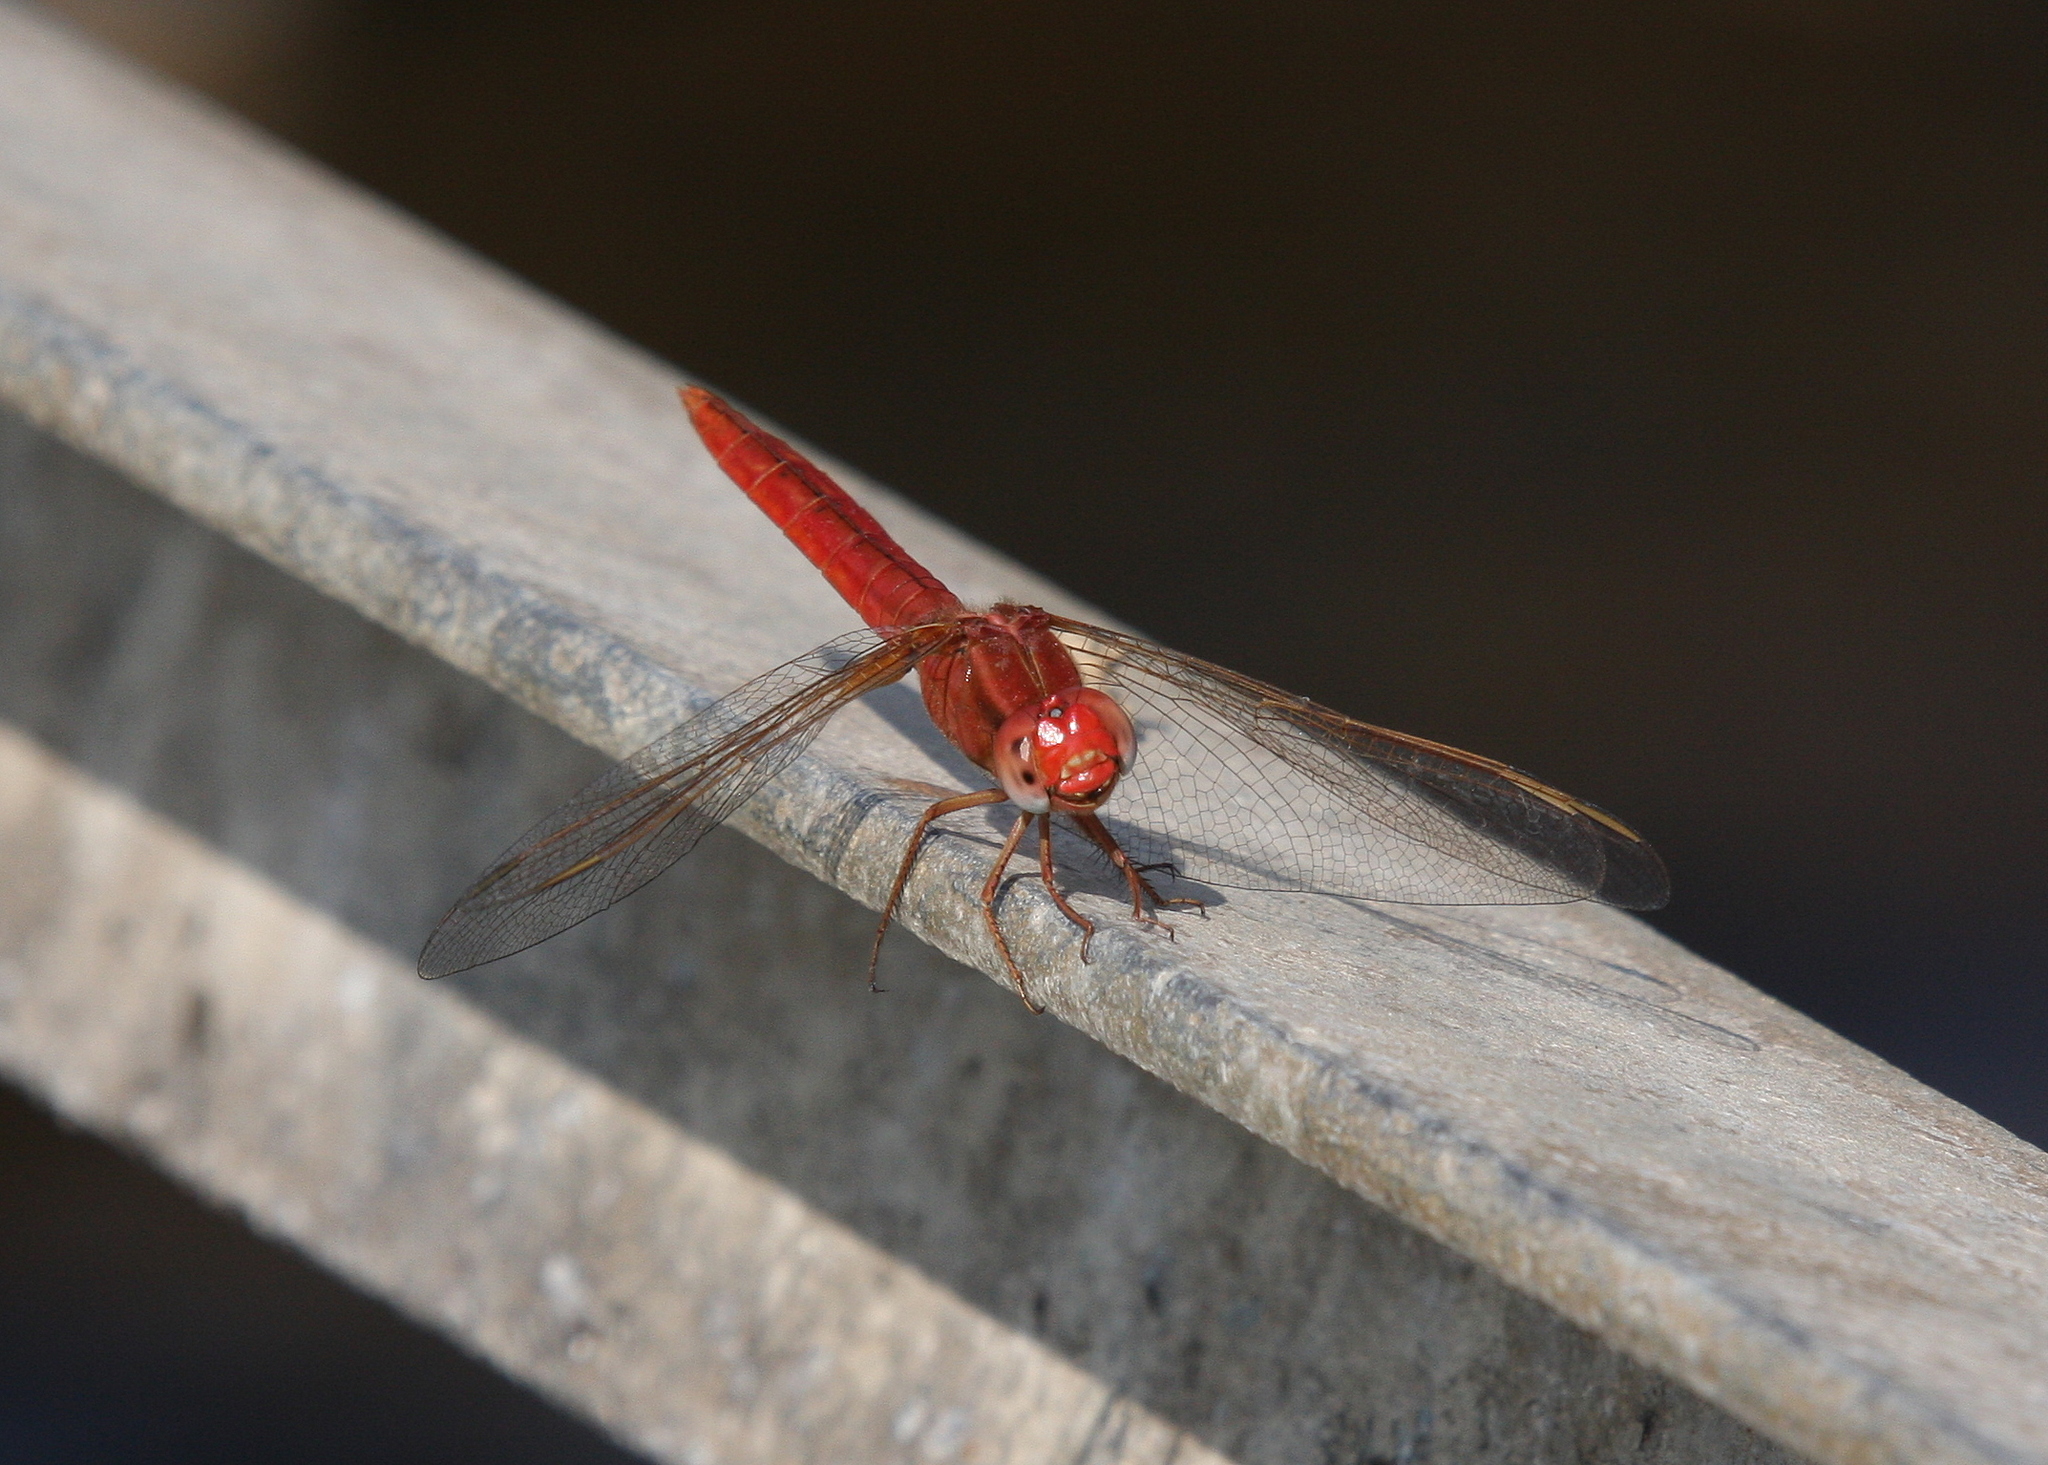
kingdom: Animalia
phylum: Arthropoda
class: Insecta
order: Odonata
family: Libellulidae
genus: Crocothemis
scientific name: Crocothemis erythraea
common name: Scarlet dragonfly
